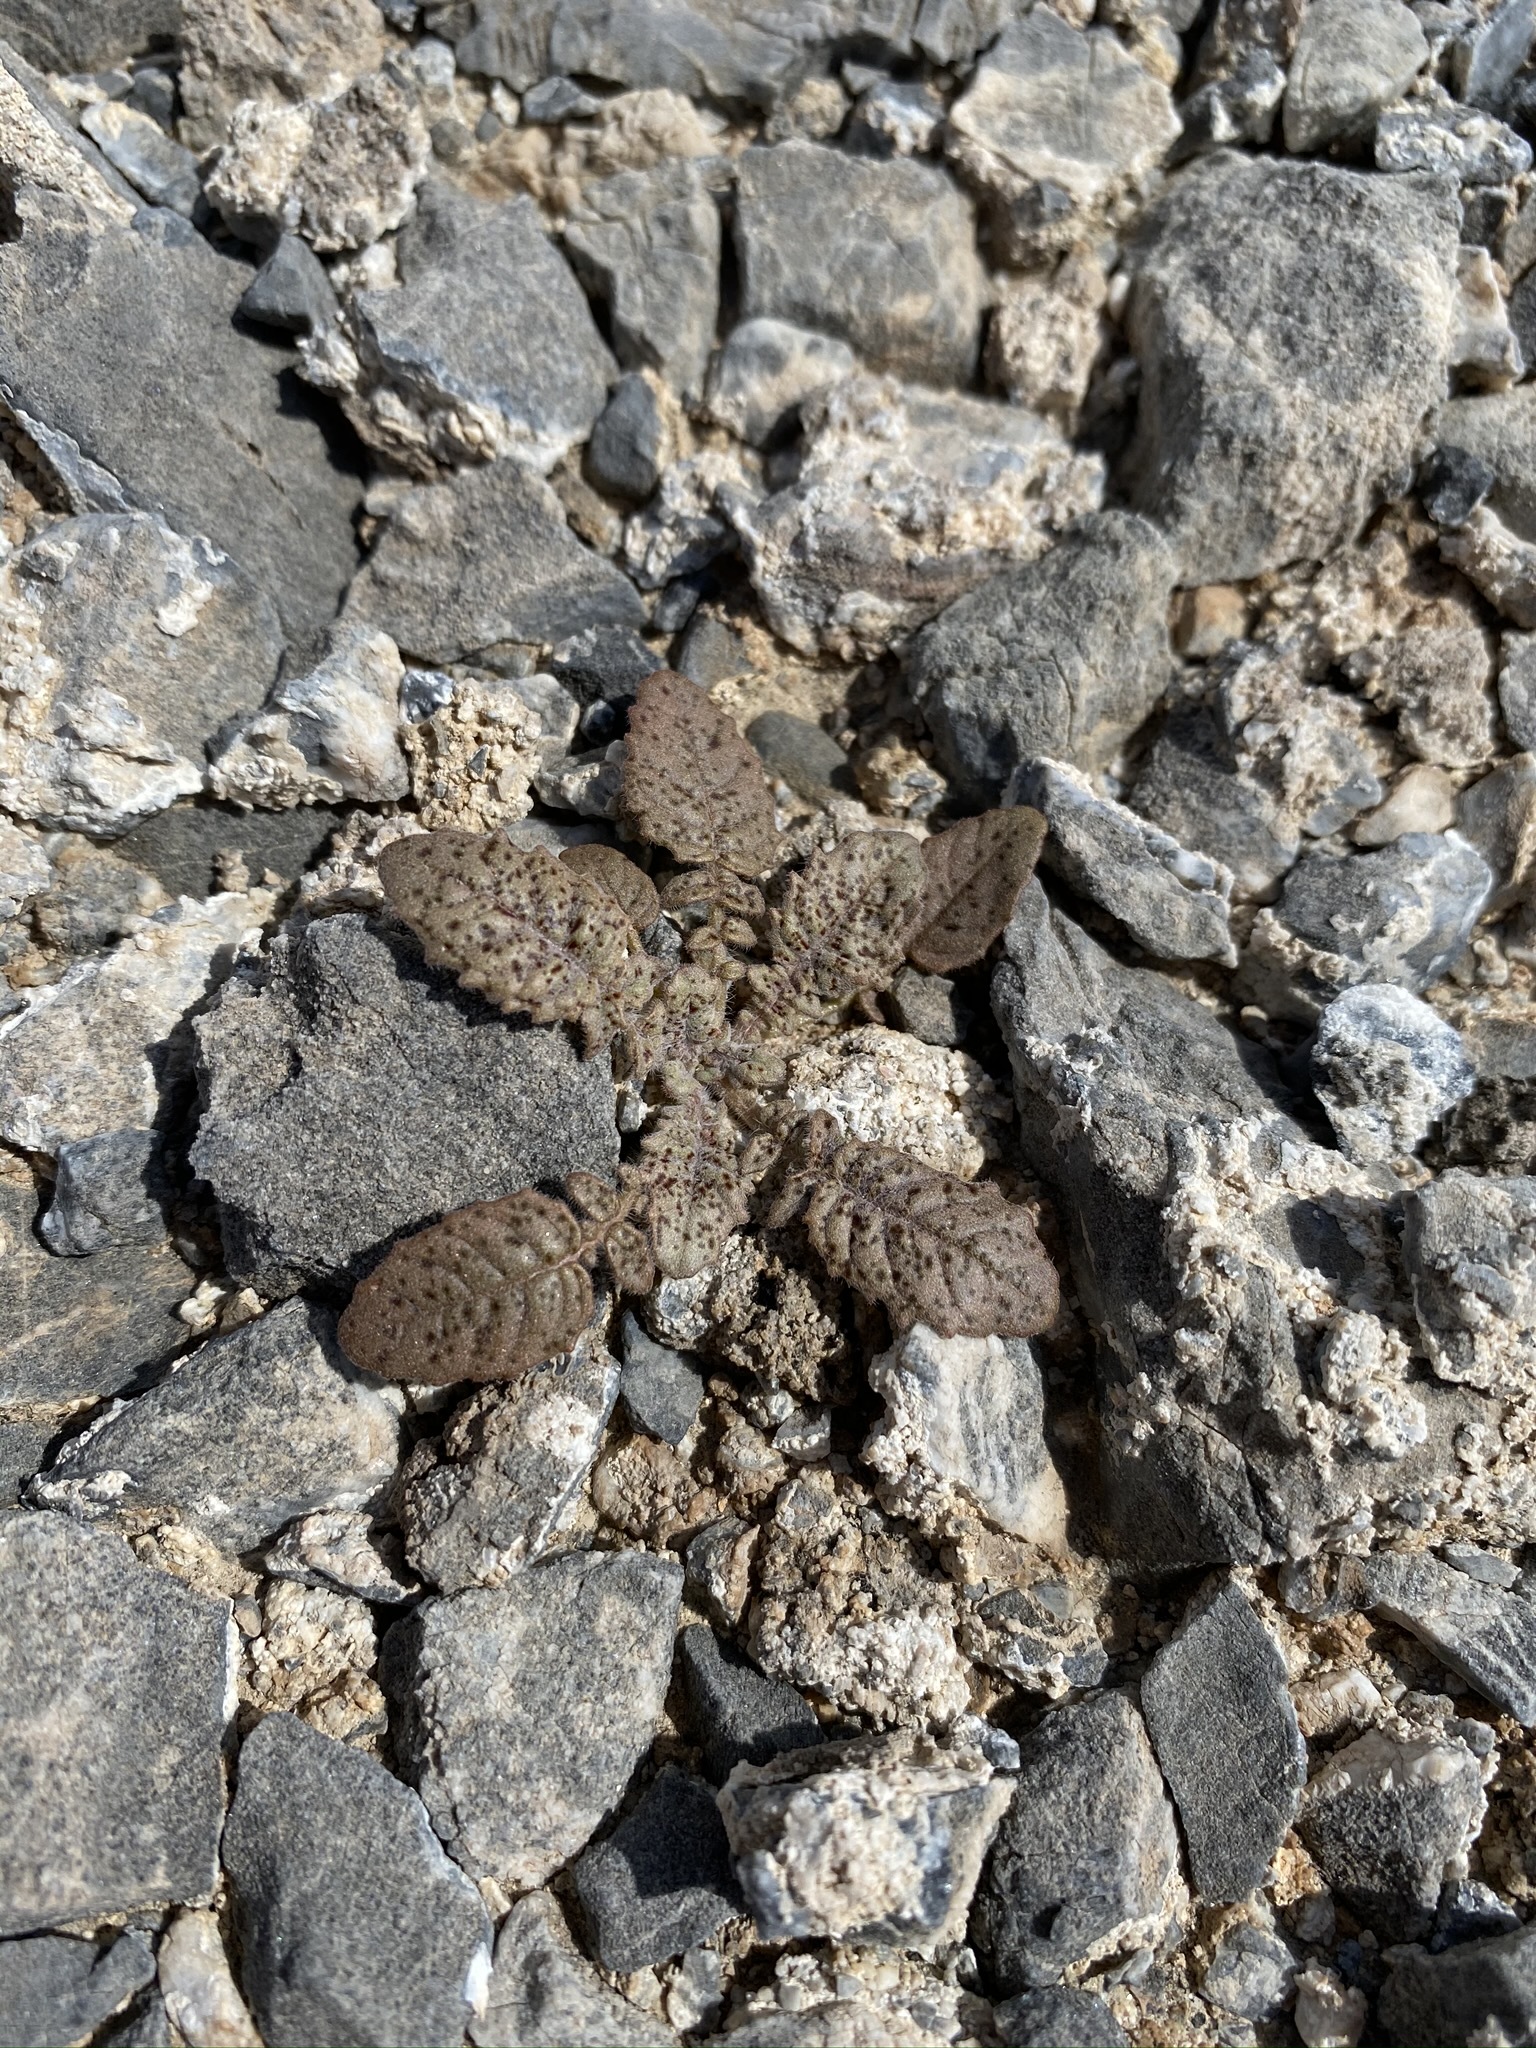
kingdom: Plantae
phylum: Tracheophyta
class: Magnoliopsida
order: Myrtales
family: Onagraceae
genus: Chylismia
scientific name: Chylismia walkeri
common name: Walker's suncup
